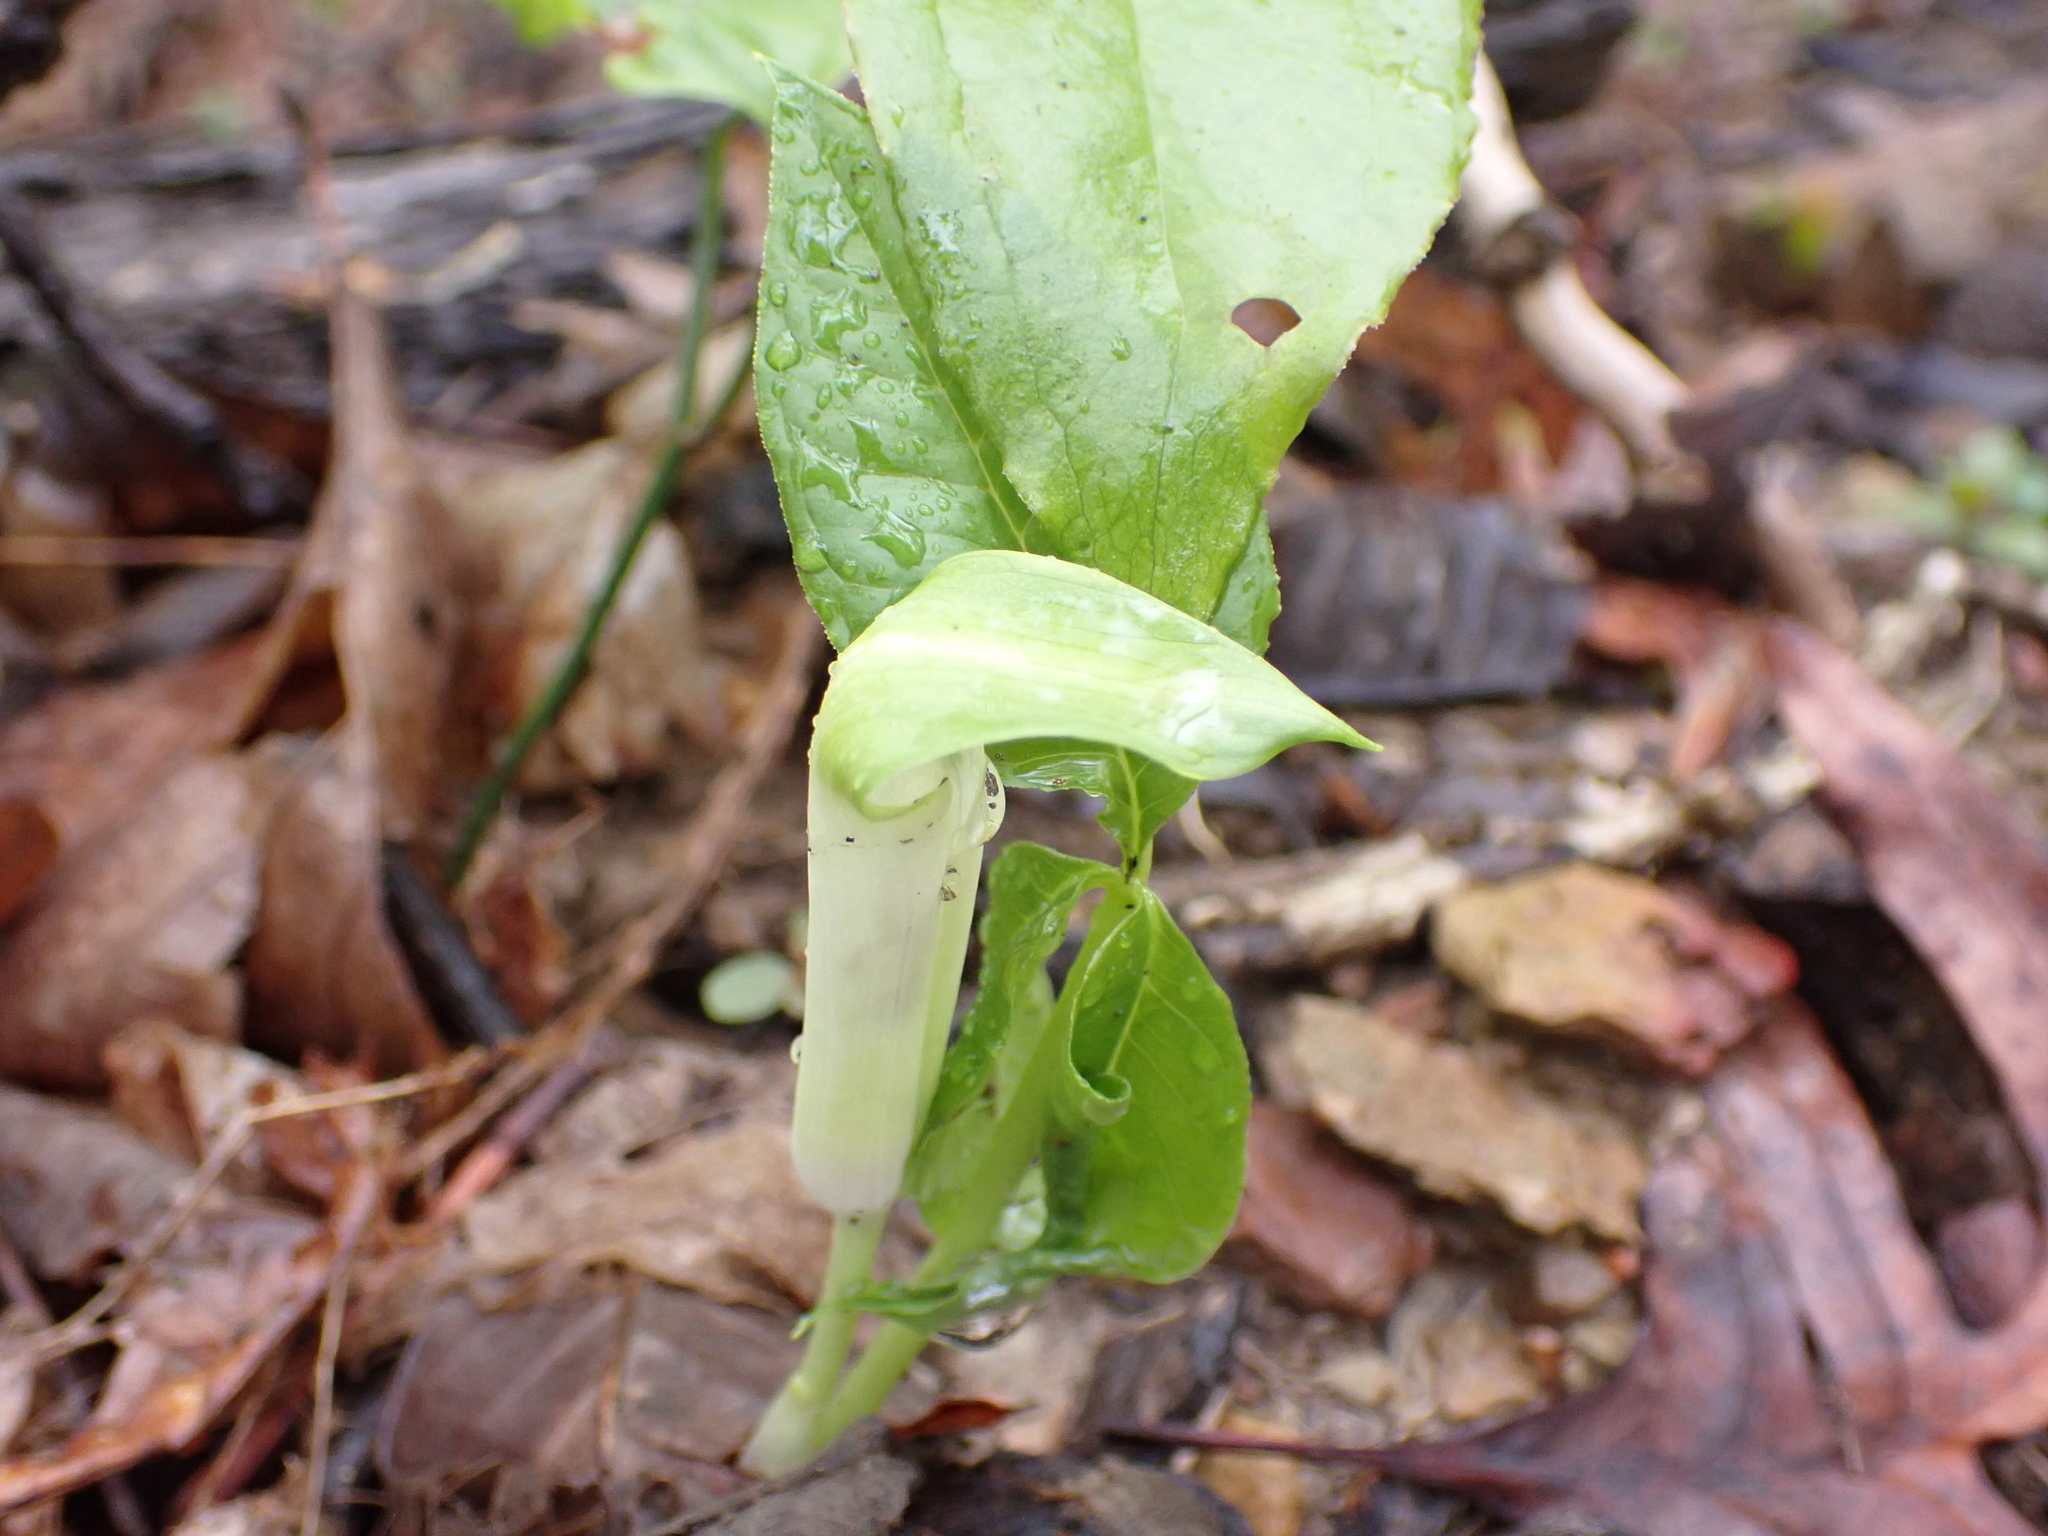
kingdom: Plantae
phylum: Tracheophyta
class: Liliopsida
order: Alismatales
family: Araceae
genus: Arisaema
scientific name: Arisaema triphyllum
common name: Jack-in-the-pulpit
